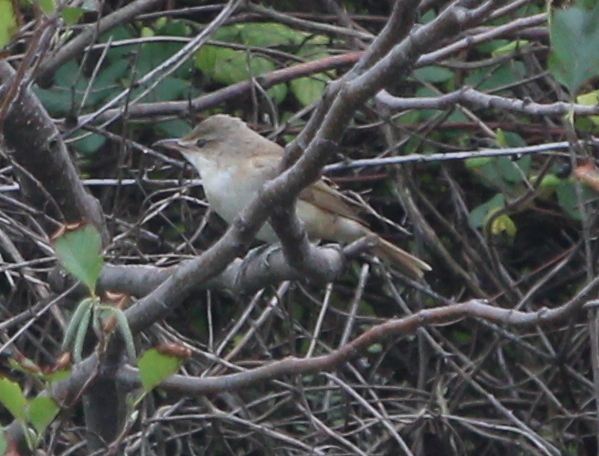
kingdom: Animalia
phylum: Chordata
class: Aves
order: Passeriformes
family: Acrocephalidae
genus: Acrocephalus
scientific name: Acrocephalus arundinaceus
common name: Great reed warbler
